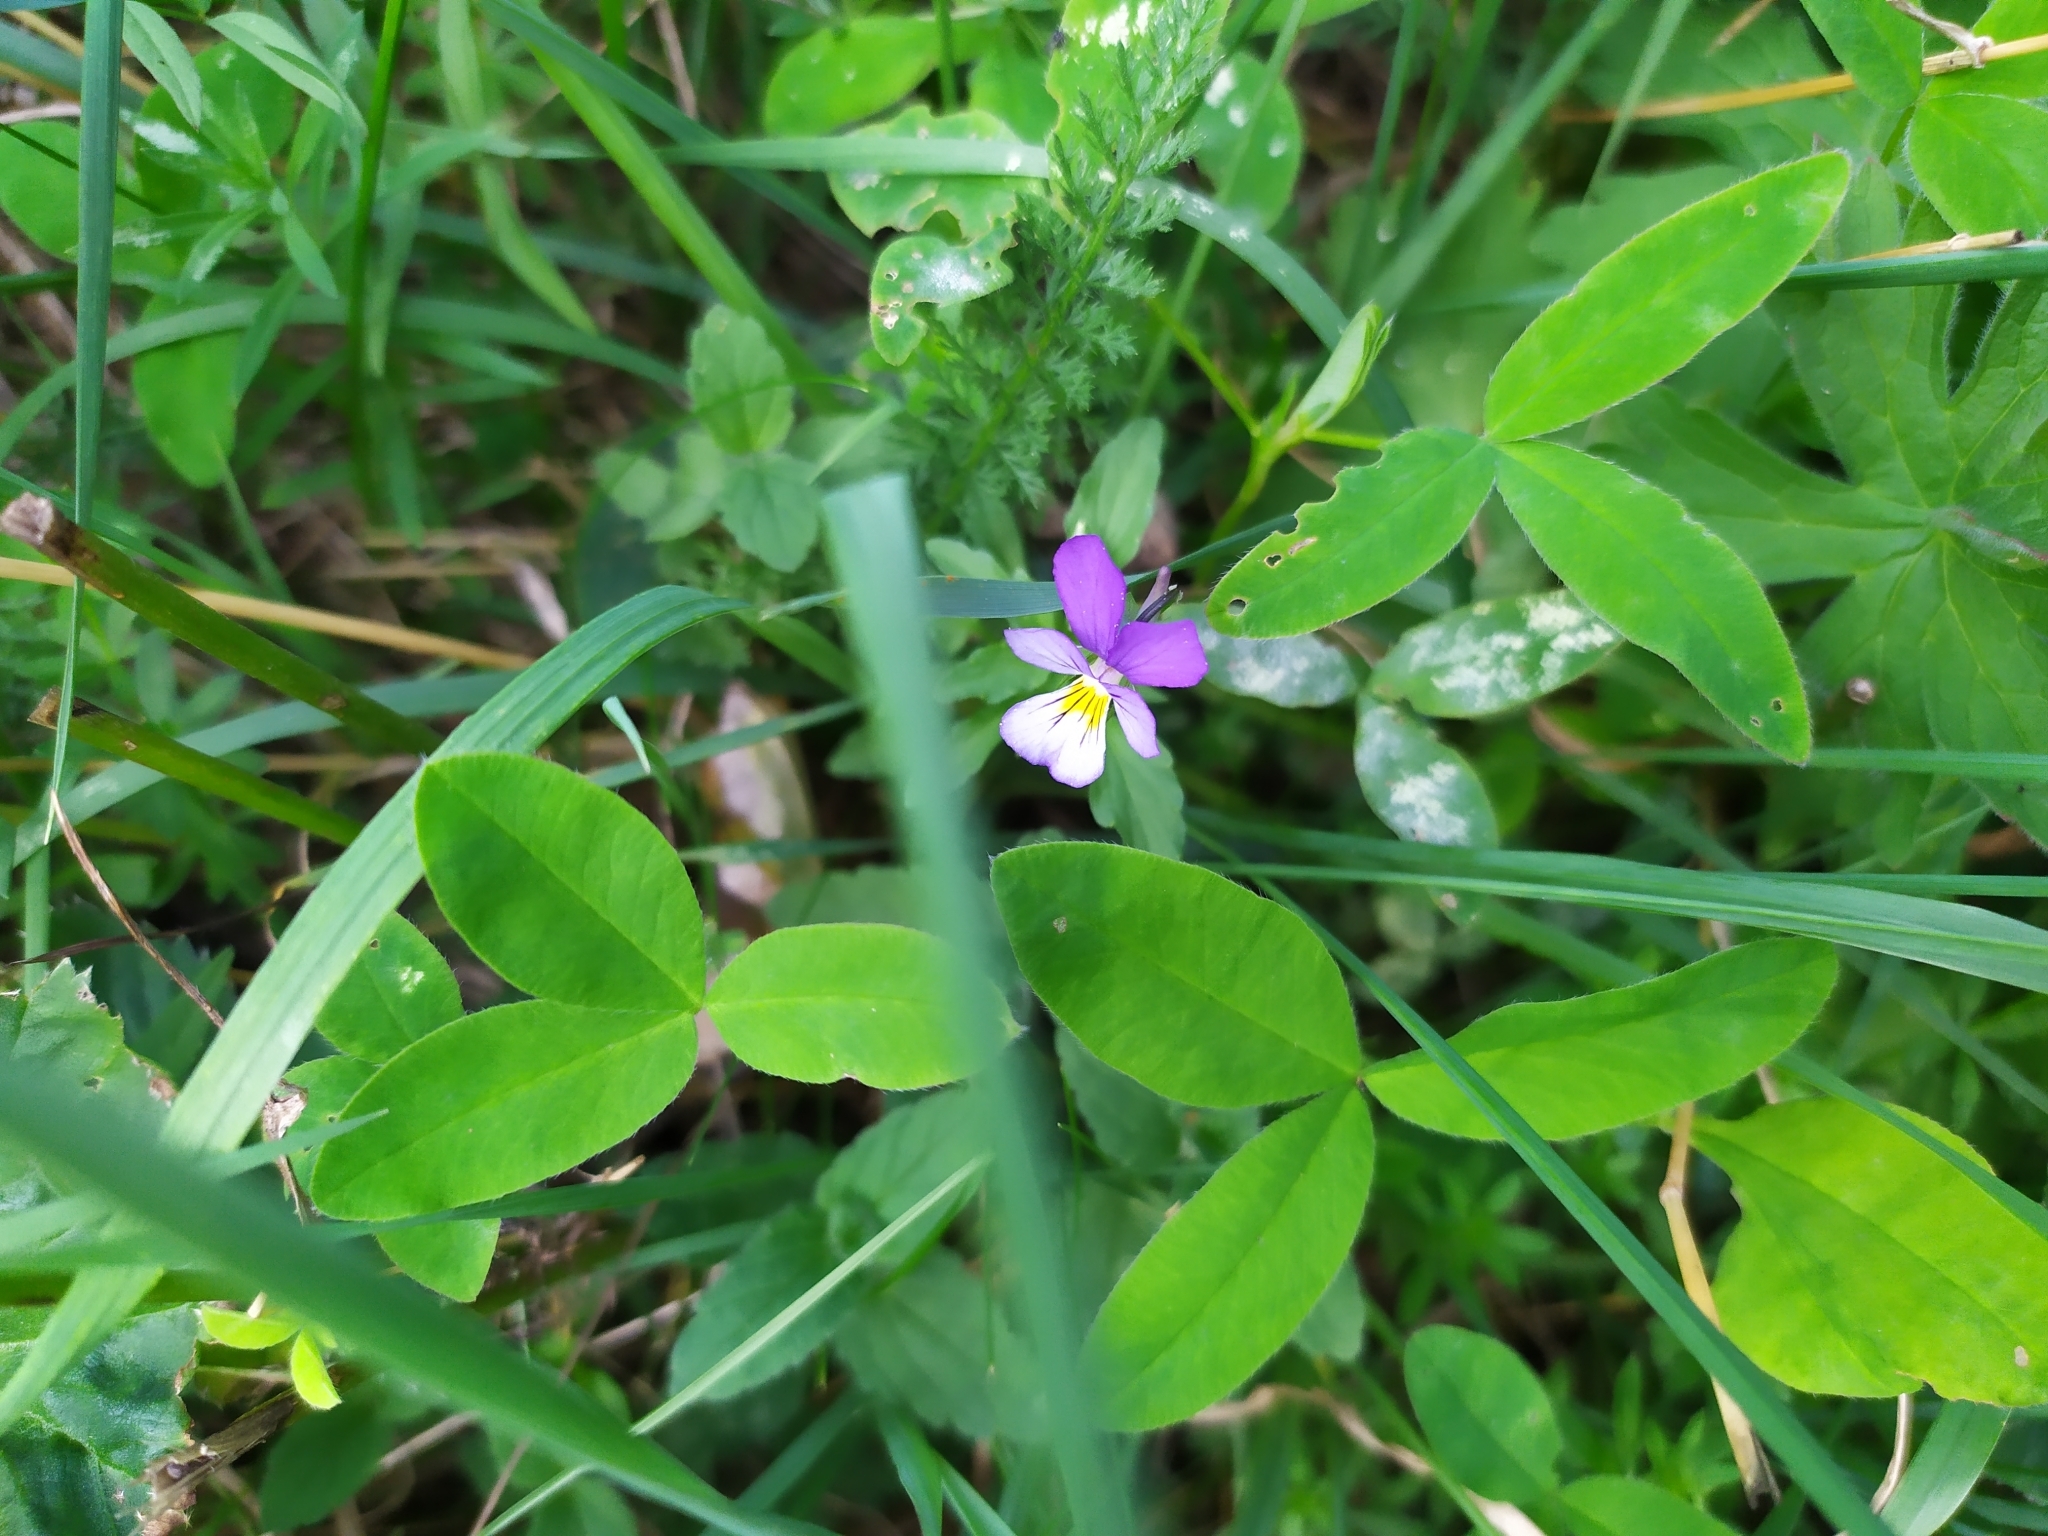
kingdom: Plantae
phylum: Tracheophyta
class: Magnoliopsida
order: Malpighiales
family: Violaceae
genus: Viola
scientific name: Viola tricolor
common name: Pansy
